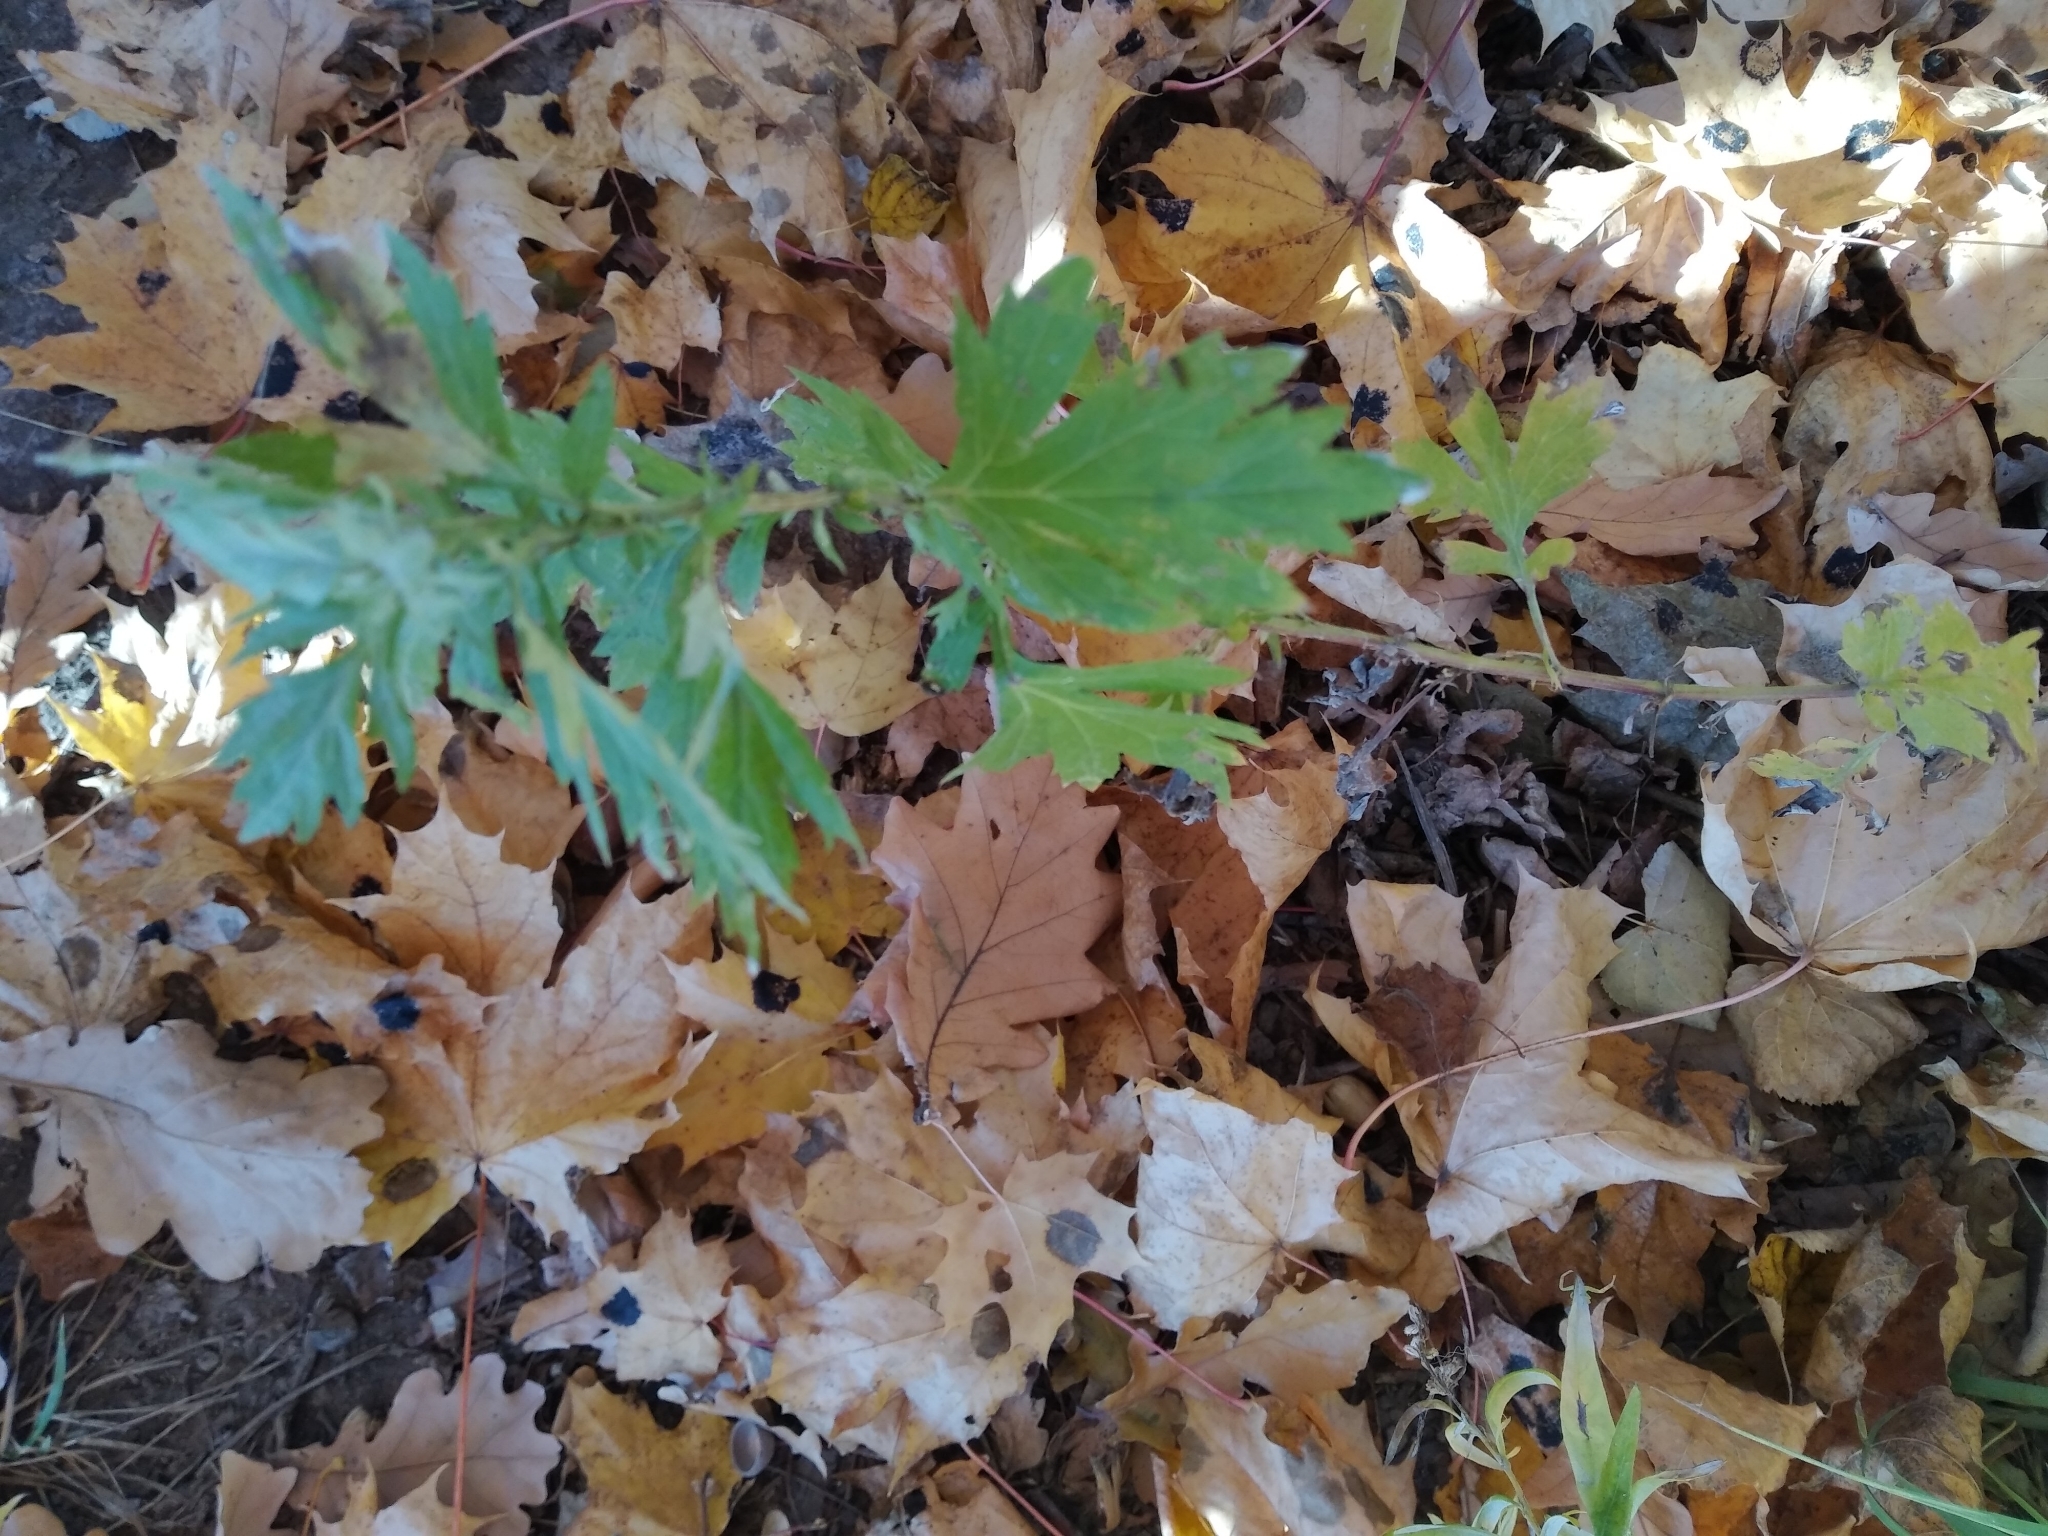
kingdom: Plantae
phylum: Tracheophyta
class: Magnoliopsida
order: Asterales
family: Asteraceae
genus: Artemisia
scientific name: Artemisia vulgaris
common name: Mugwort
